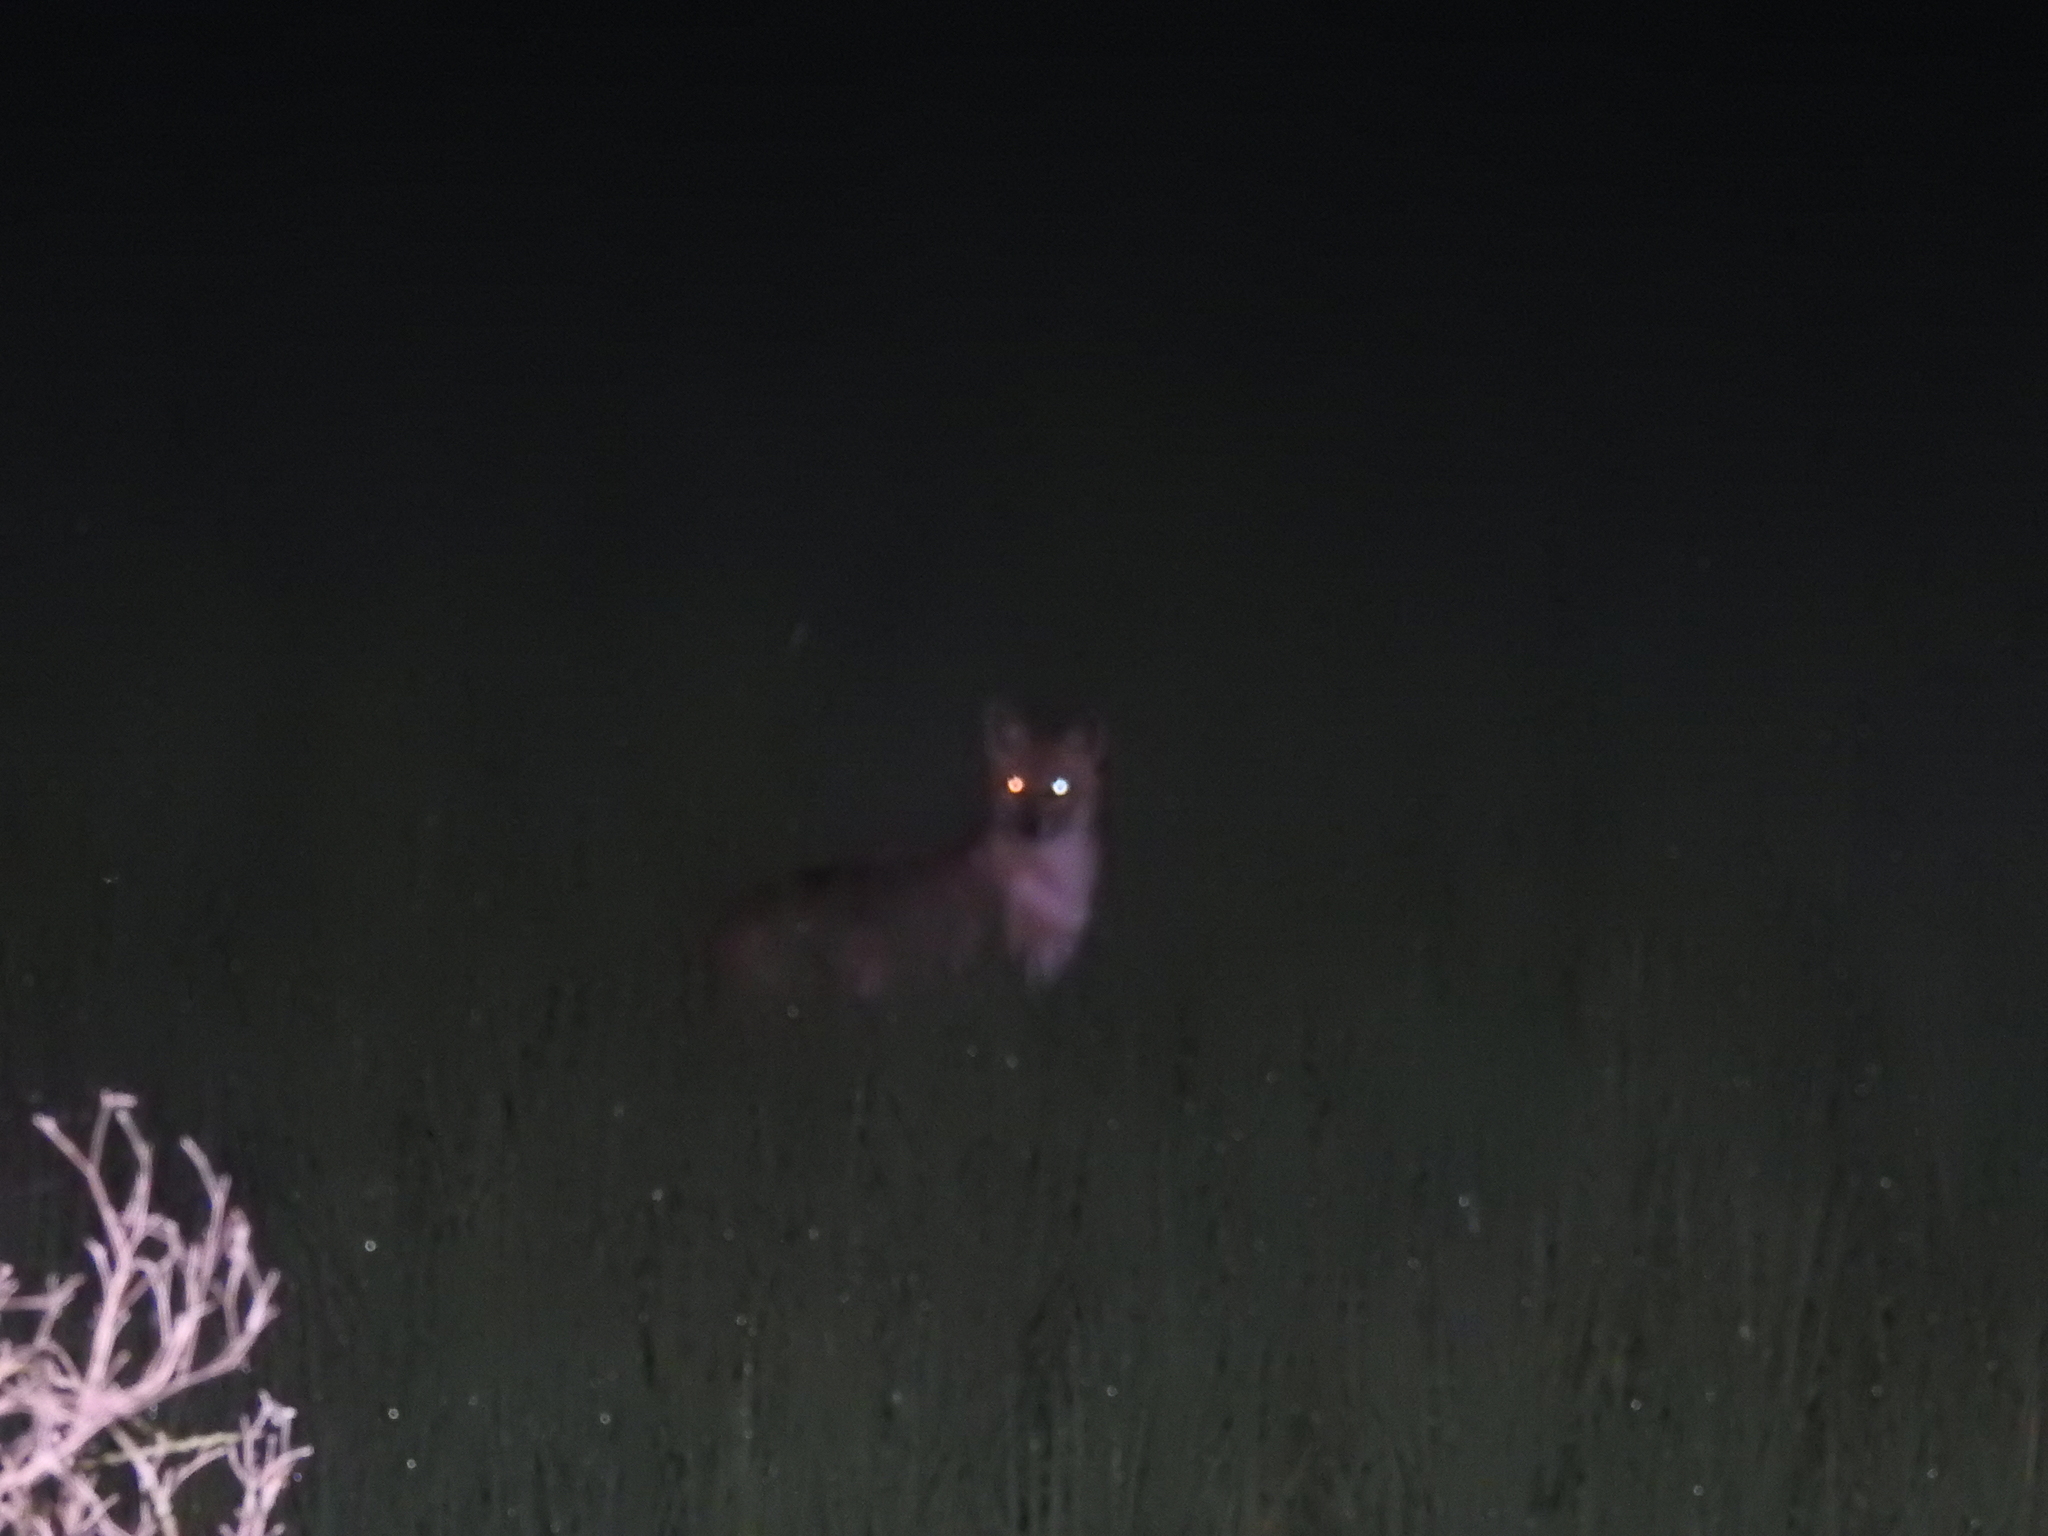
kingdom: Animalia
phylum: Chordata
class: Mammalia
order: Carnivora
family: Canidae
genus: Canis
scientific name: Canis aureus
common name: Golden jackal
